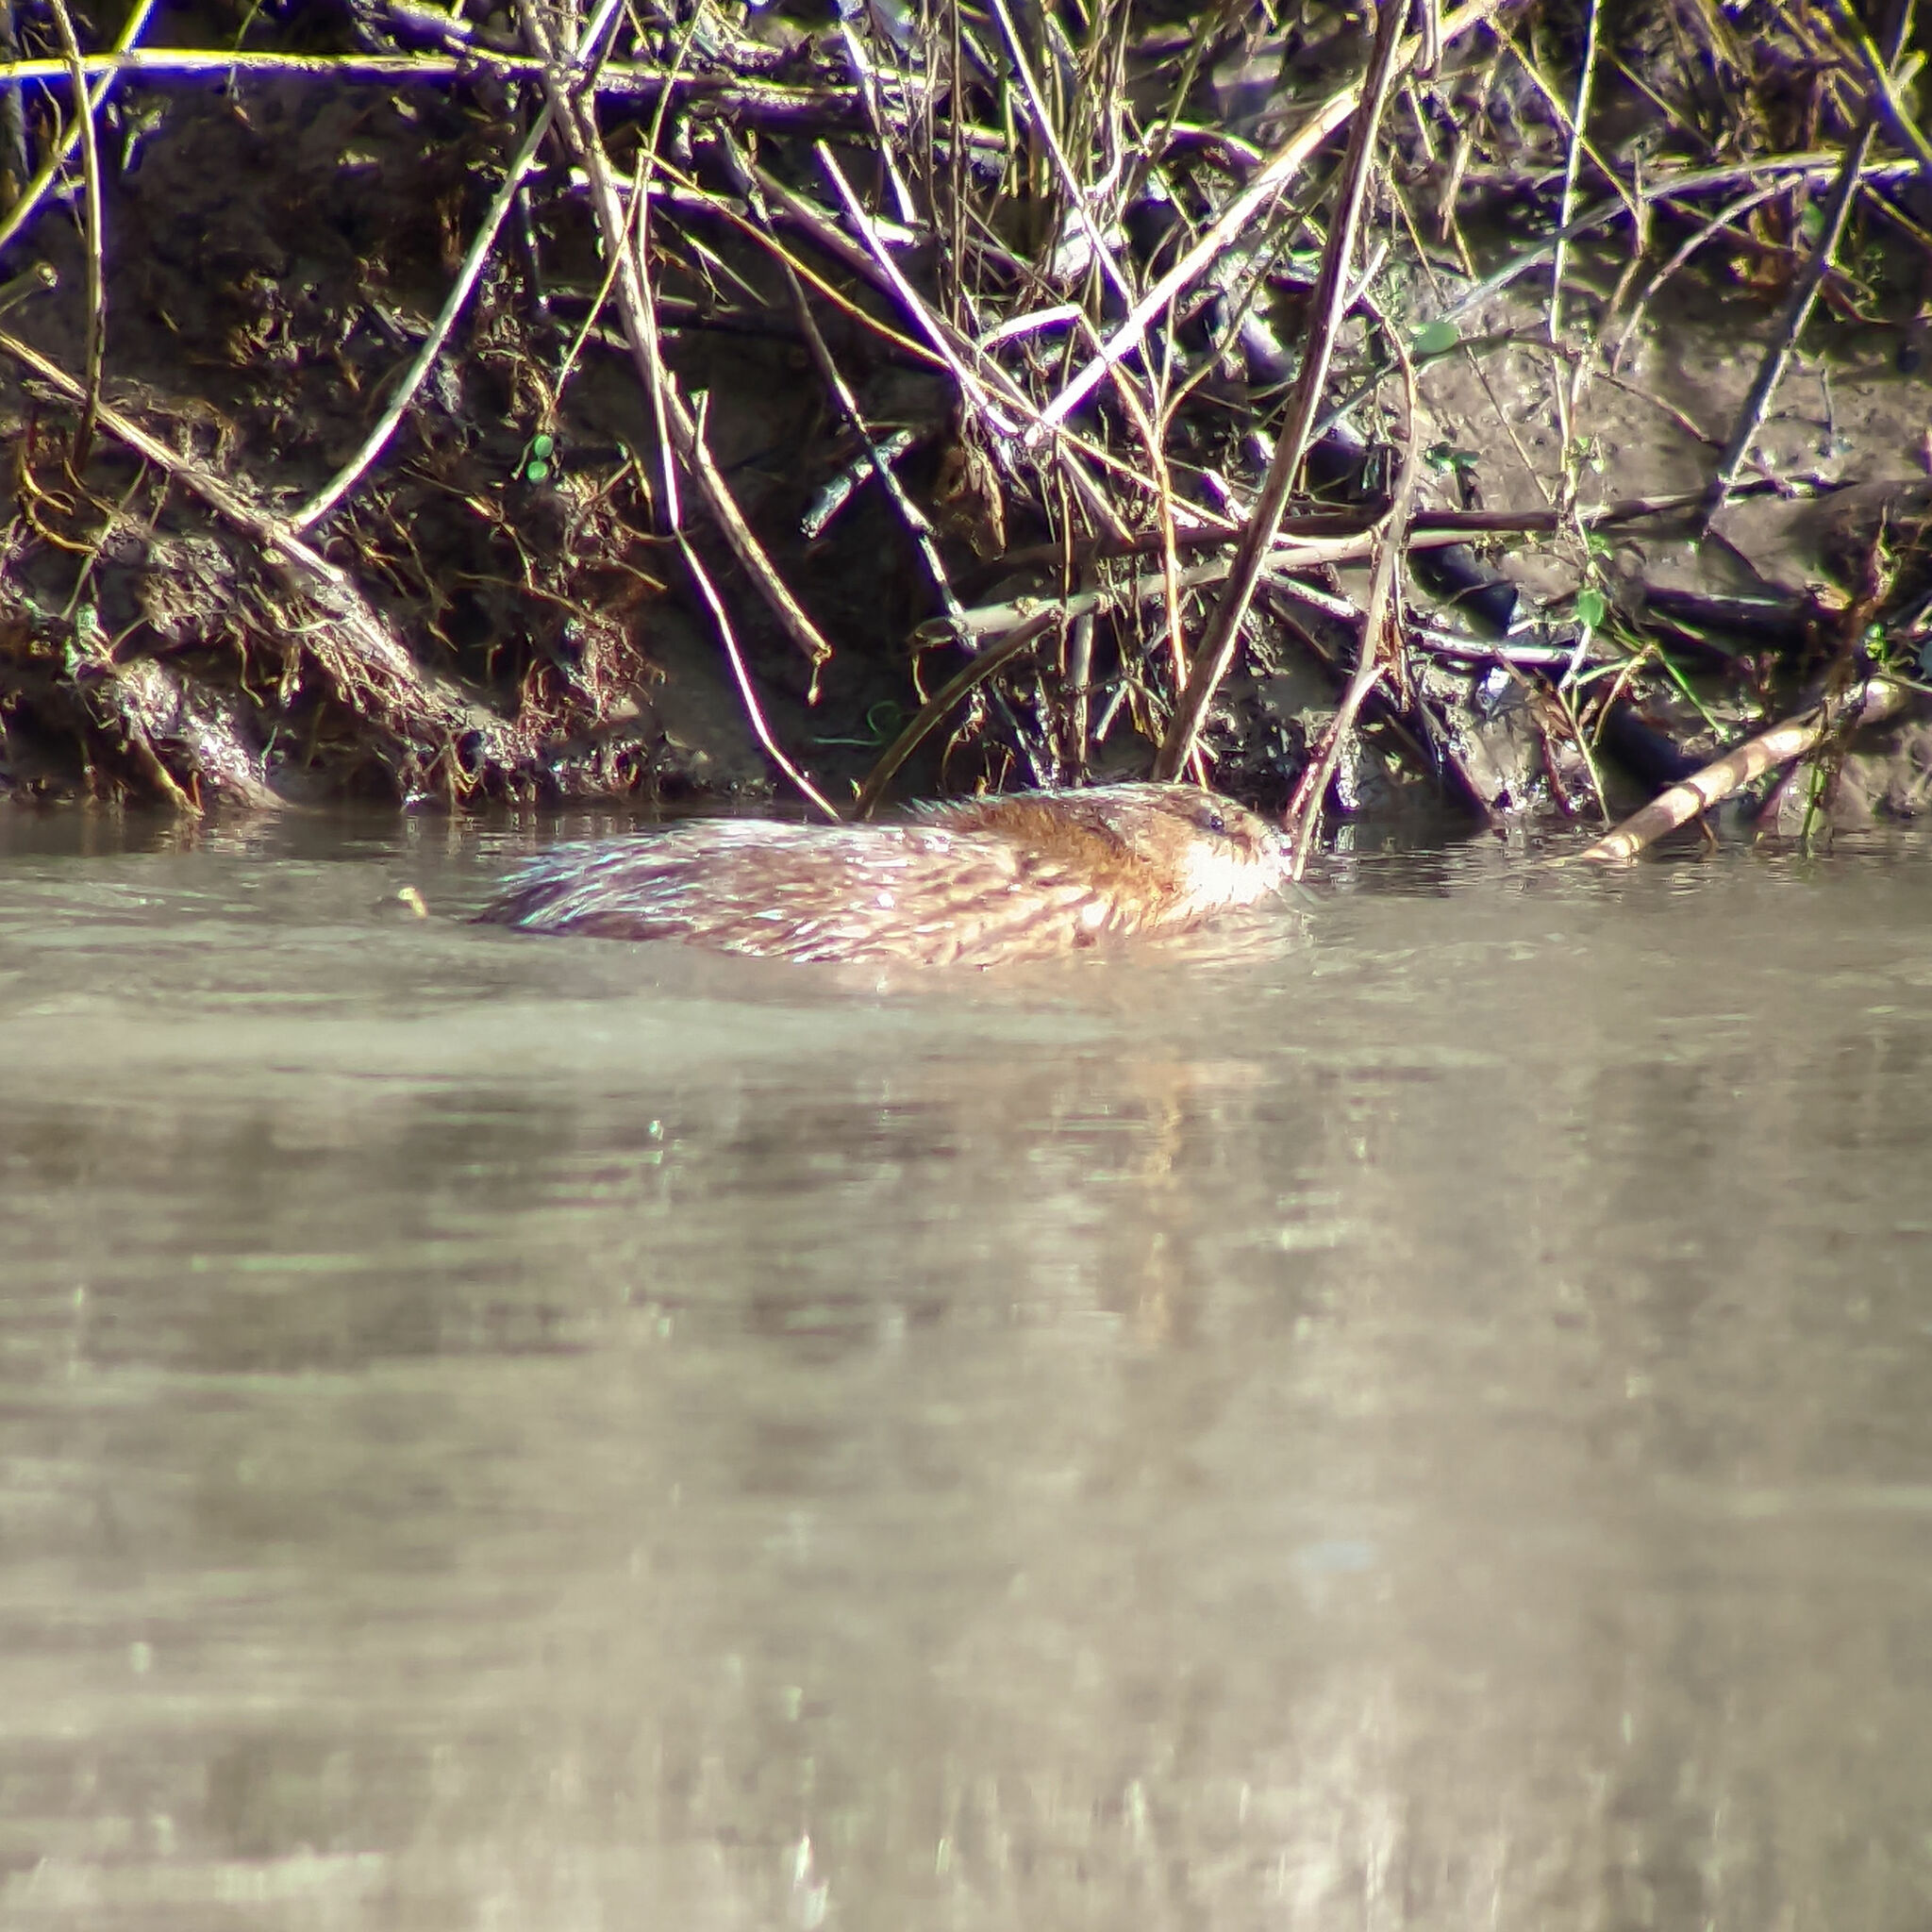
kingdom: Animalia
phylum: Chordata
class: Mammalia
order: Rodentia
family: Cricetidae
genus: Ondatra
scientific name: Ondatra zibethicus
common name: Muskrat
